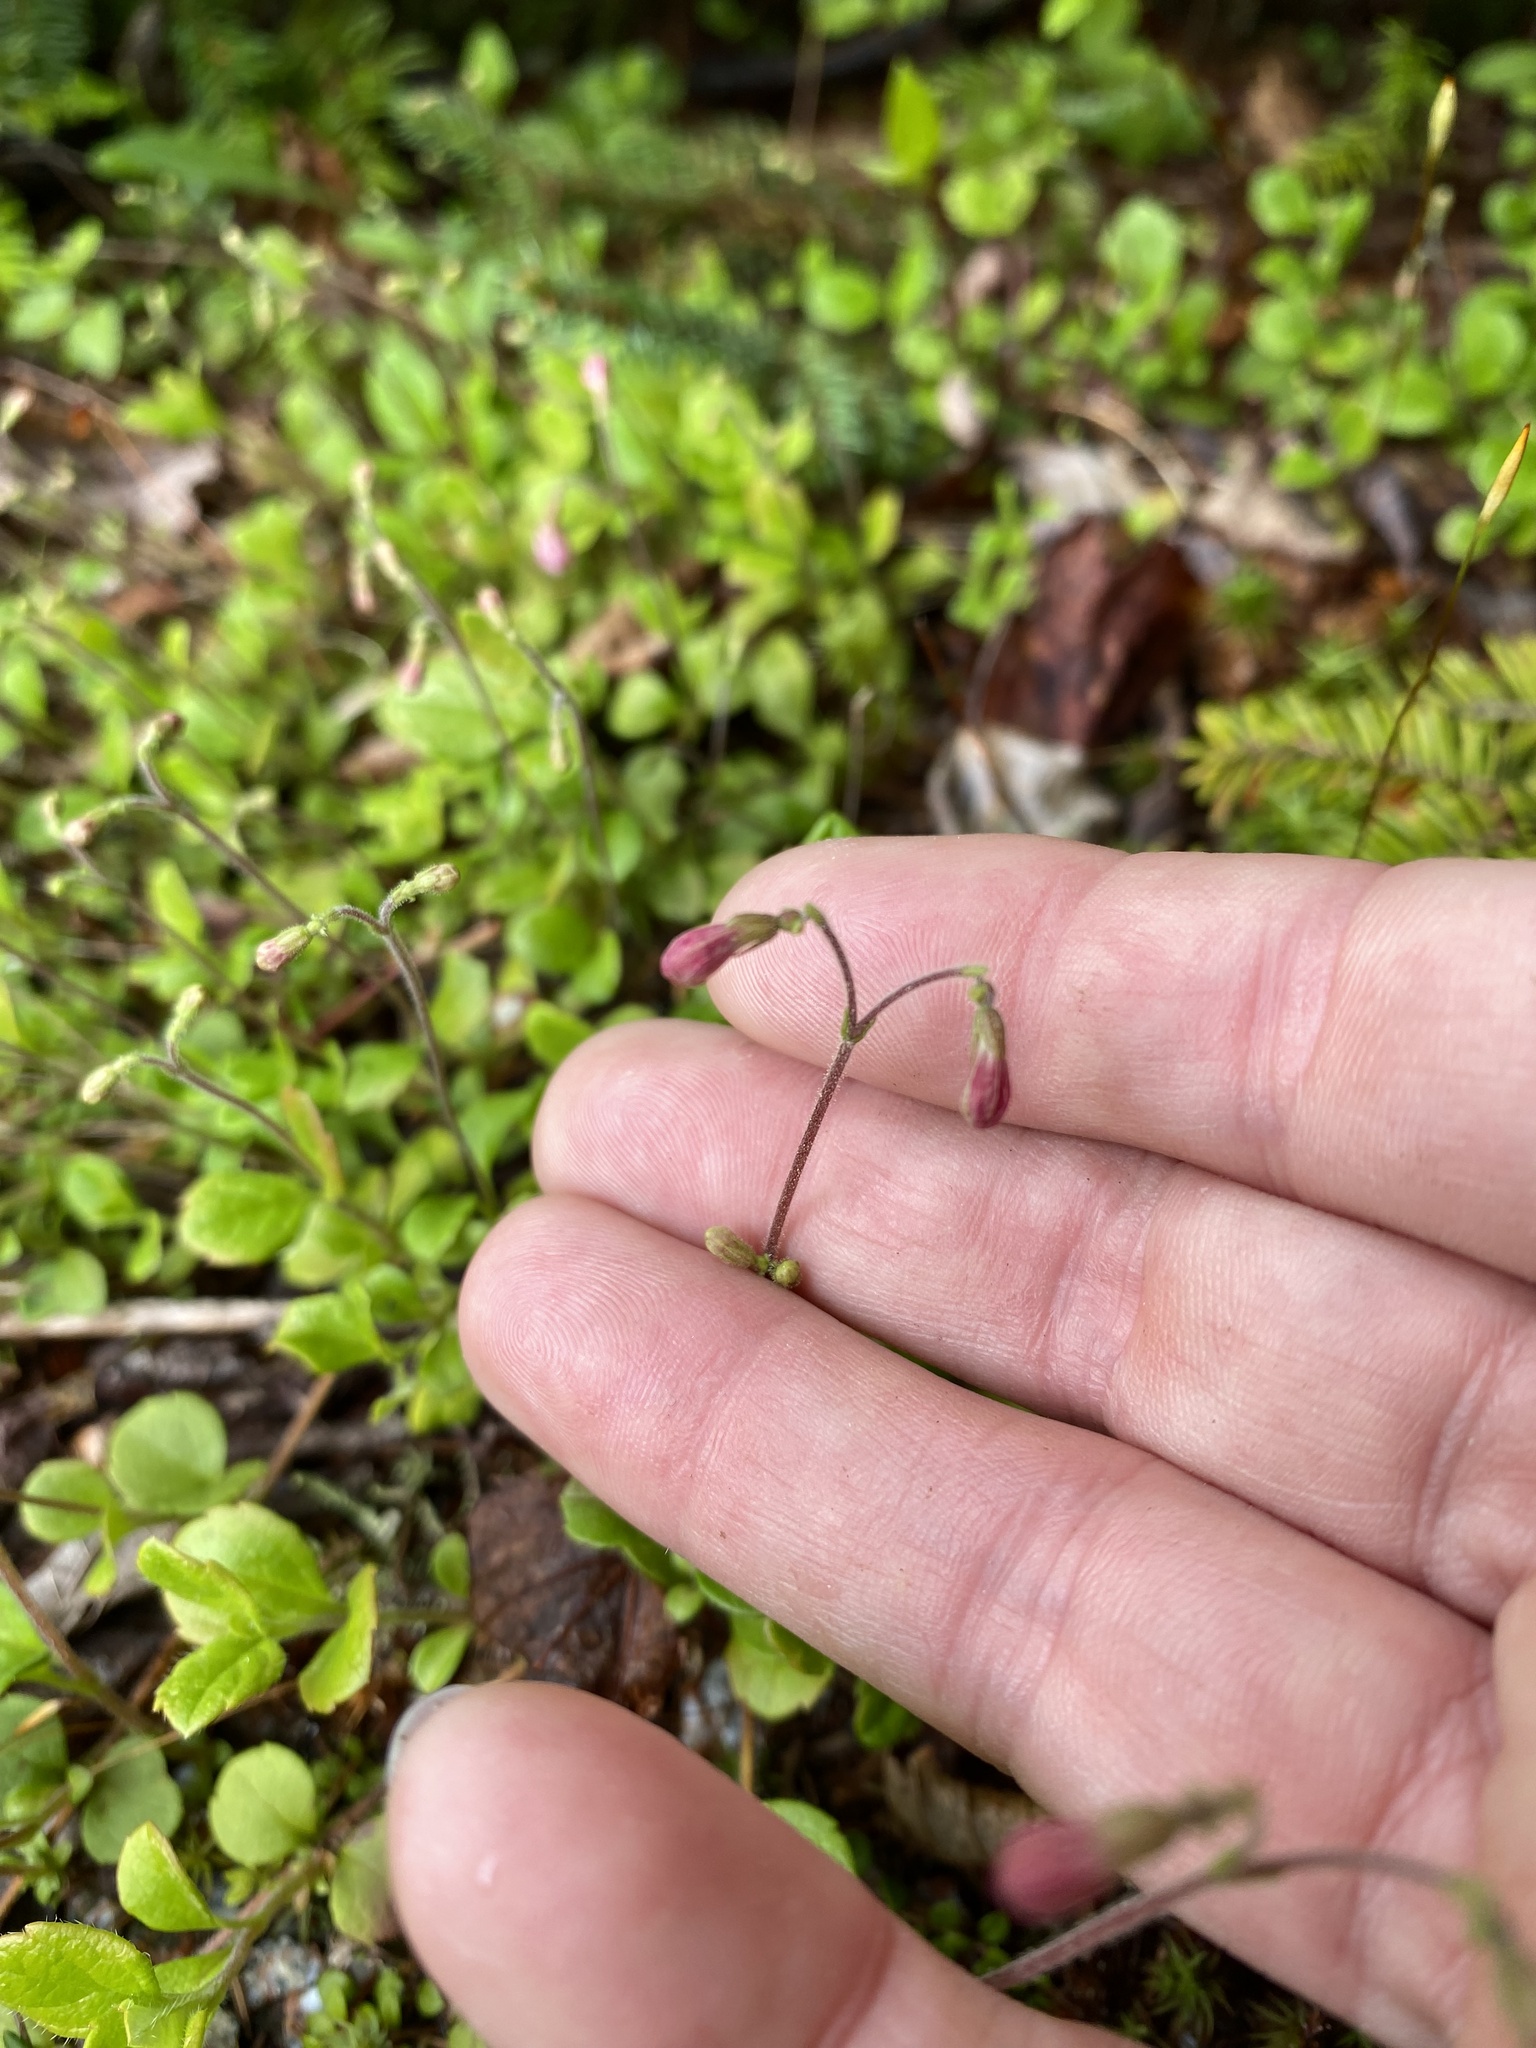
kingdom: Plantae
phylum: Tracheophyta
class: Magnoliopsida
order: Dipsacales
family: Caprifoliaceae
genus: Linnaea
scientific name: Linnaea borealis
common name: Twinflower
